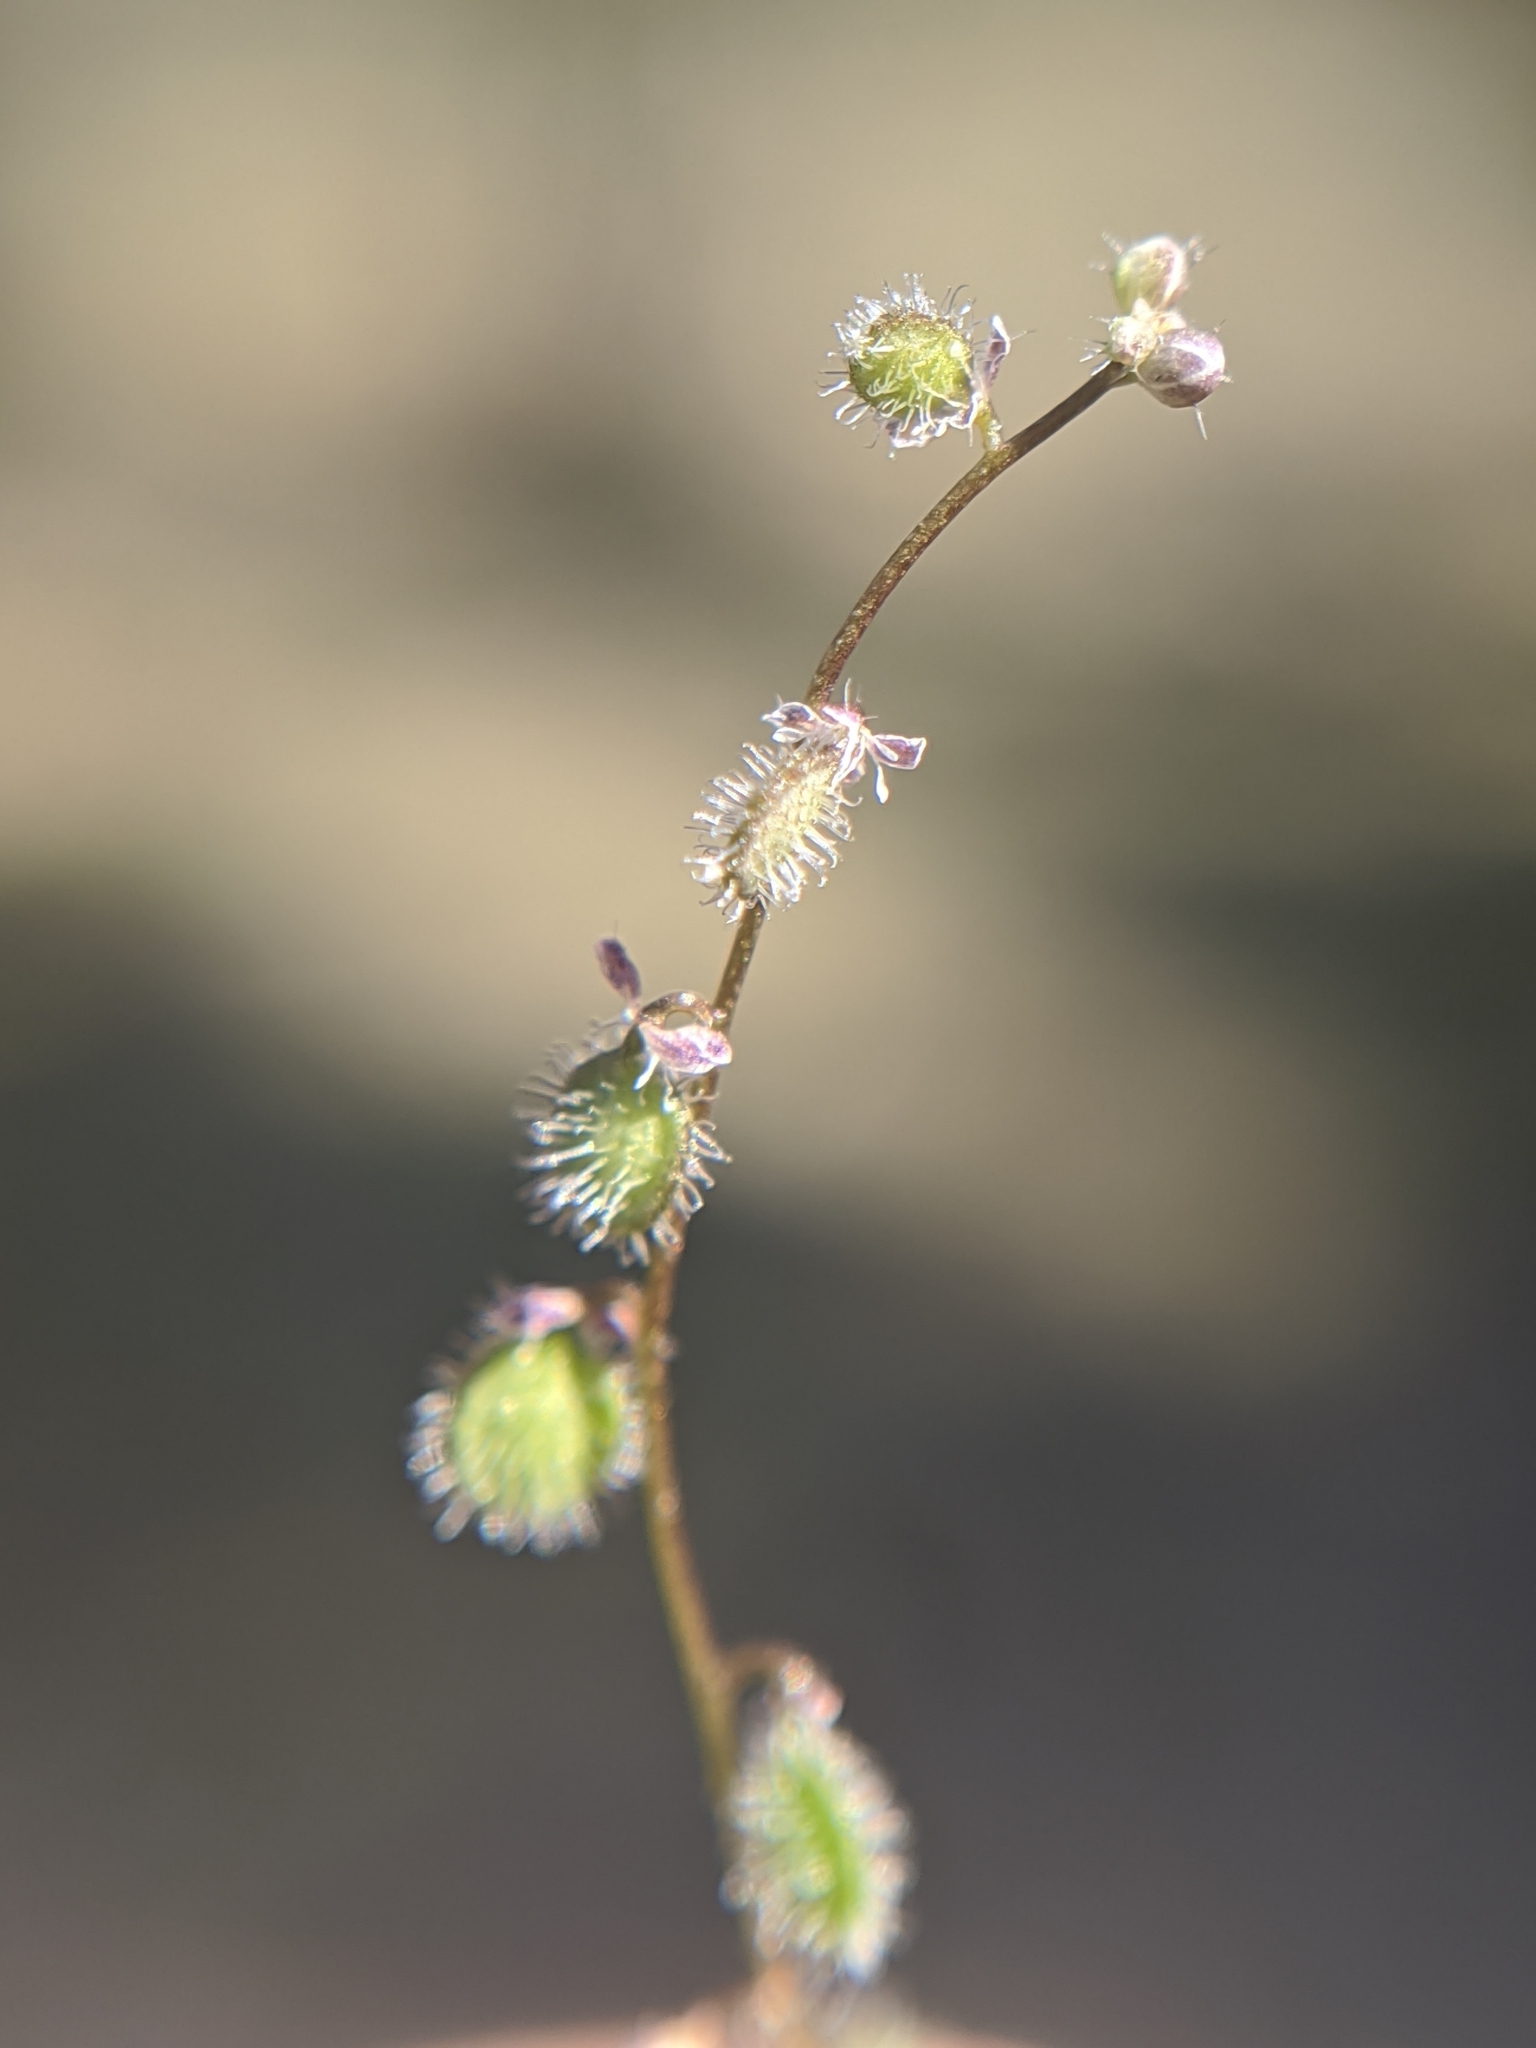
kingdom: Plantae
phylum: Tracheophyta
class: Magnoliopsida
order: Brassicales
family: Brassicaceae
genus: Athysanus
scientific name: Athysanus pusillus
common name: Common sandweed
